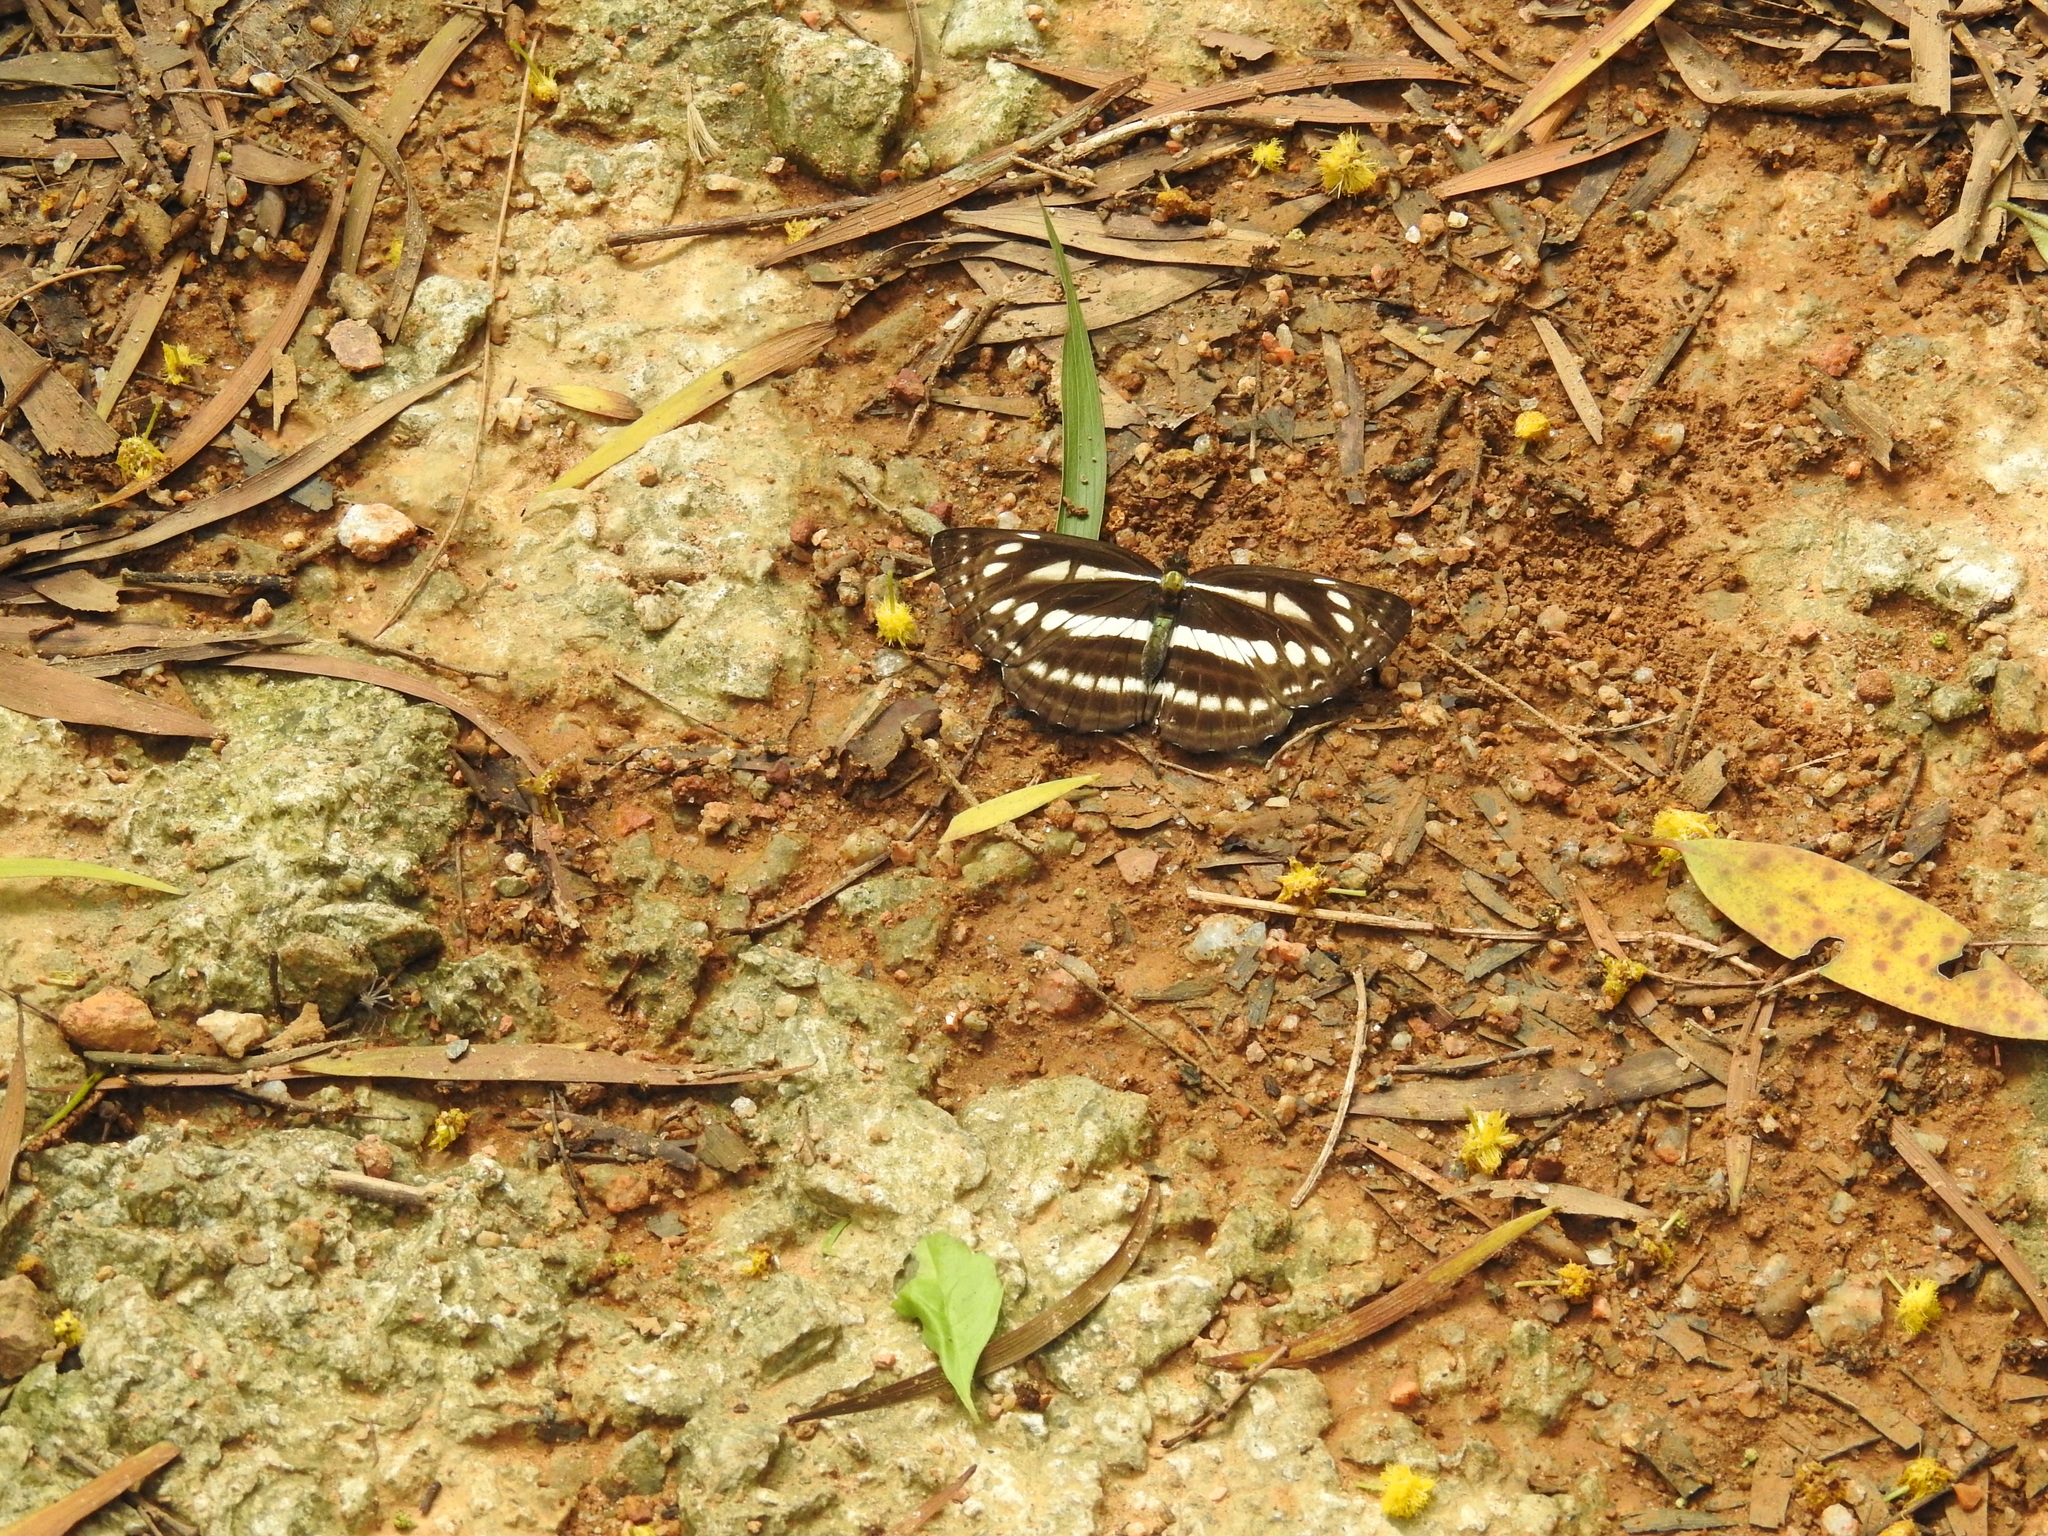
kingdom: Animalia
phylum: Arthropoda
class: Insecta
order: Lepidoptera
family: Nymphalidae
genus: Neptis
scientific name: Neptis soma
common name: Cream-spotted sailor
